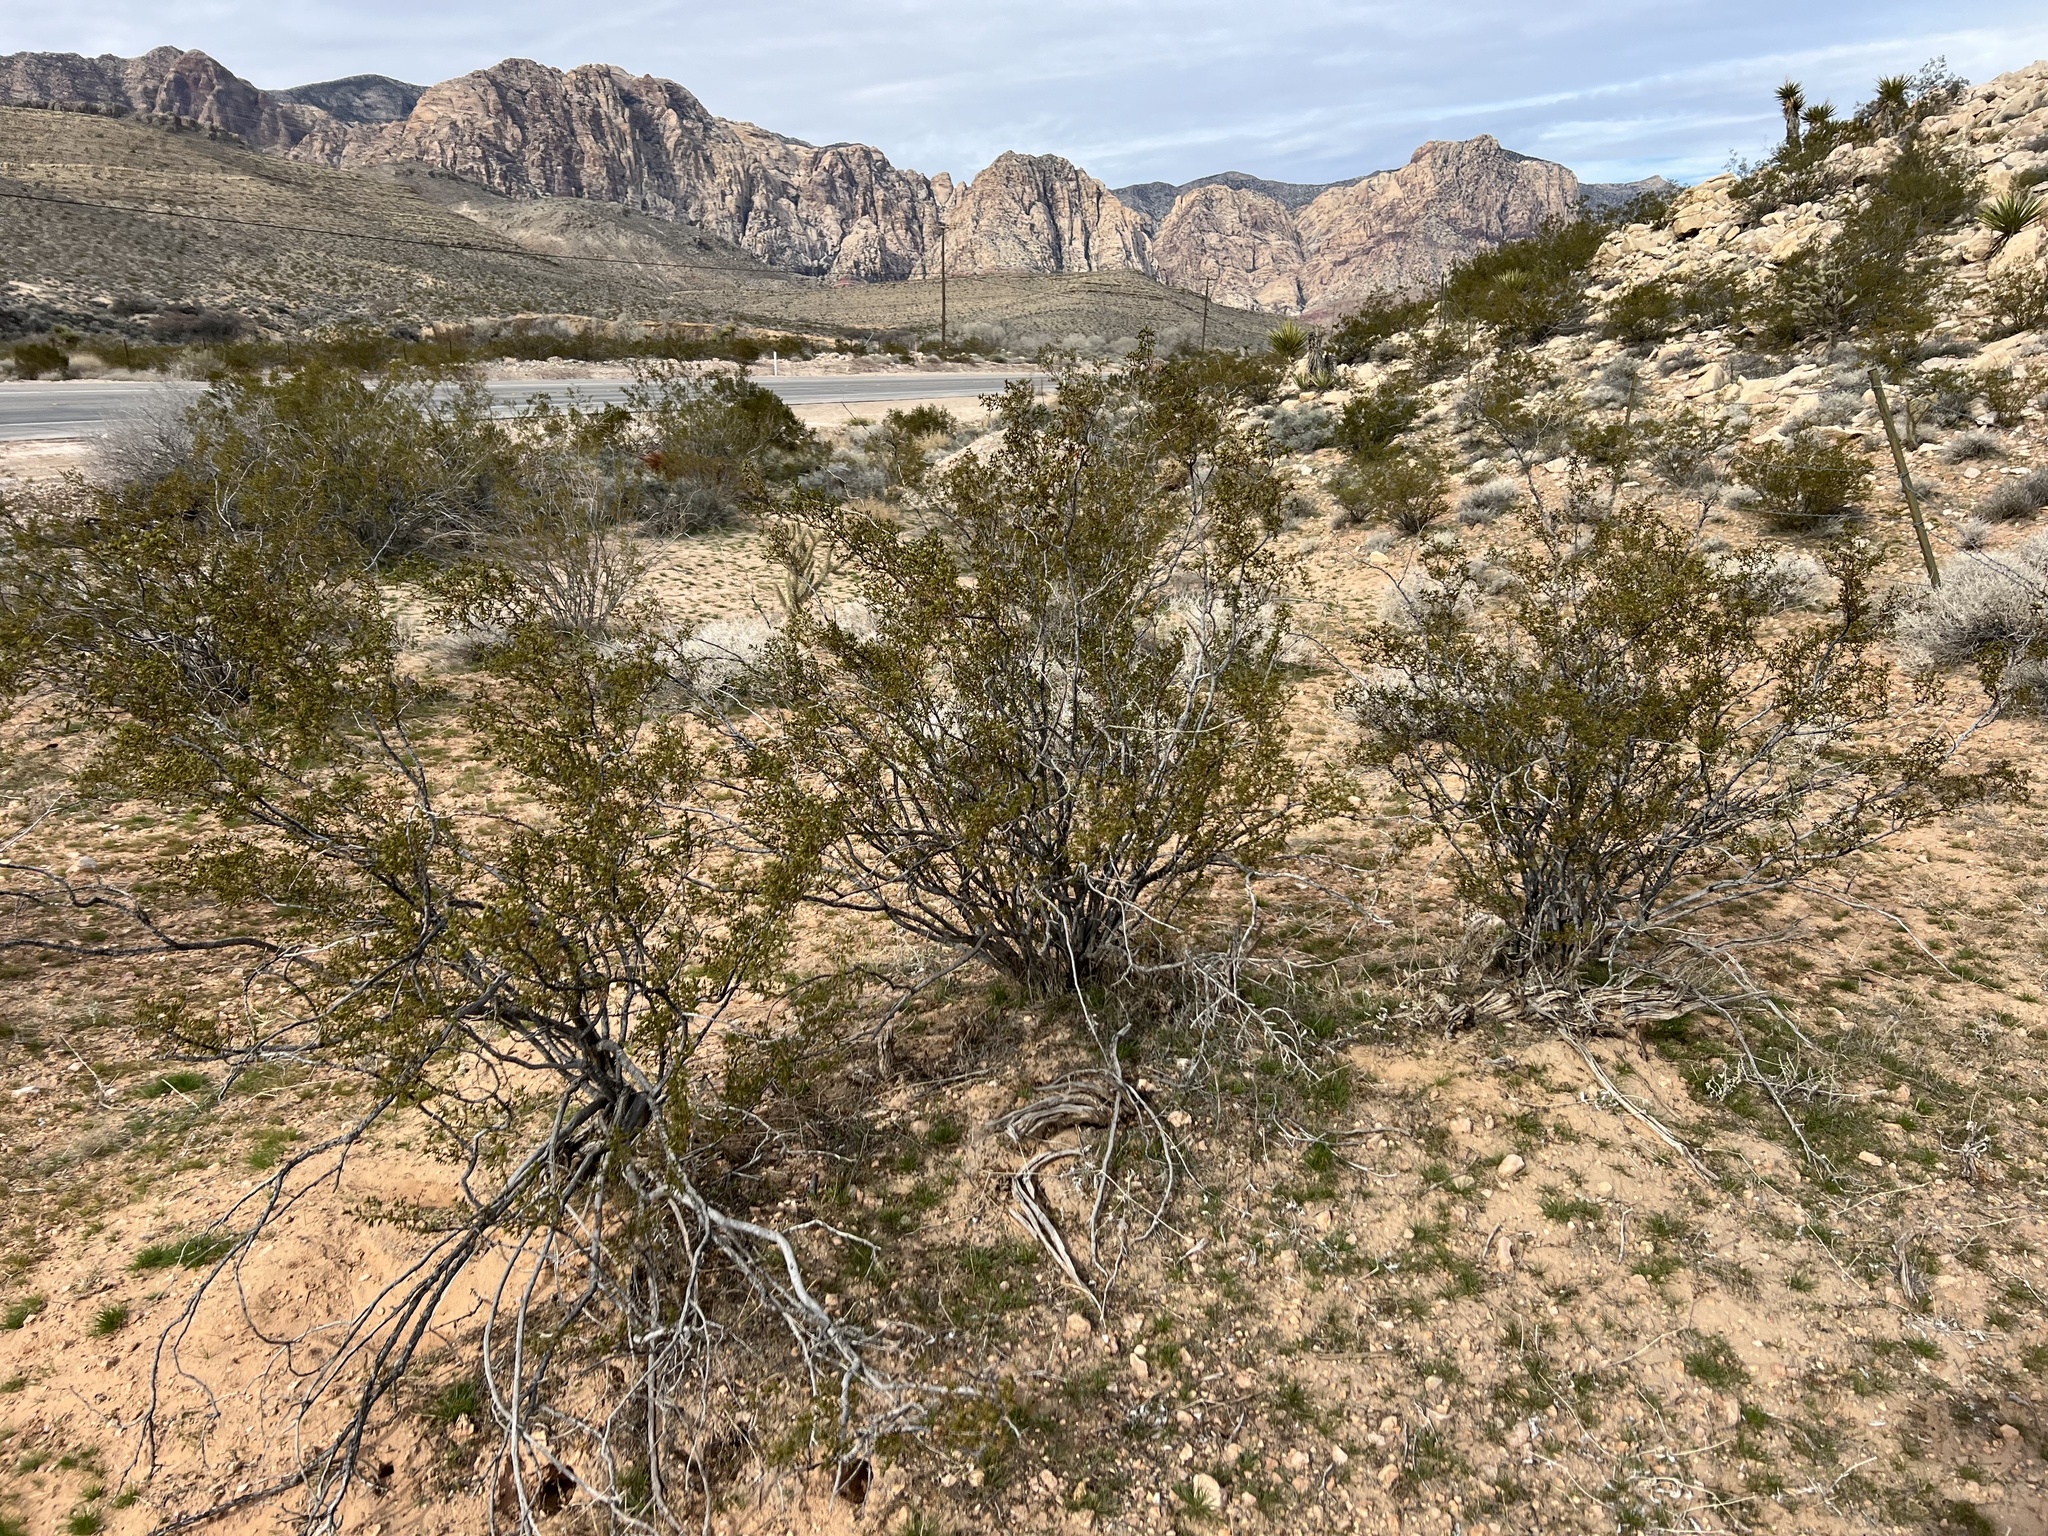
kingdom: Plantae
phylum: Tracheophyta
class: Magnoliopsida
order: Zygophyllales
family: Zygophyllaceae
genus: Larrea
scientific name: Larrea tridentata
